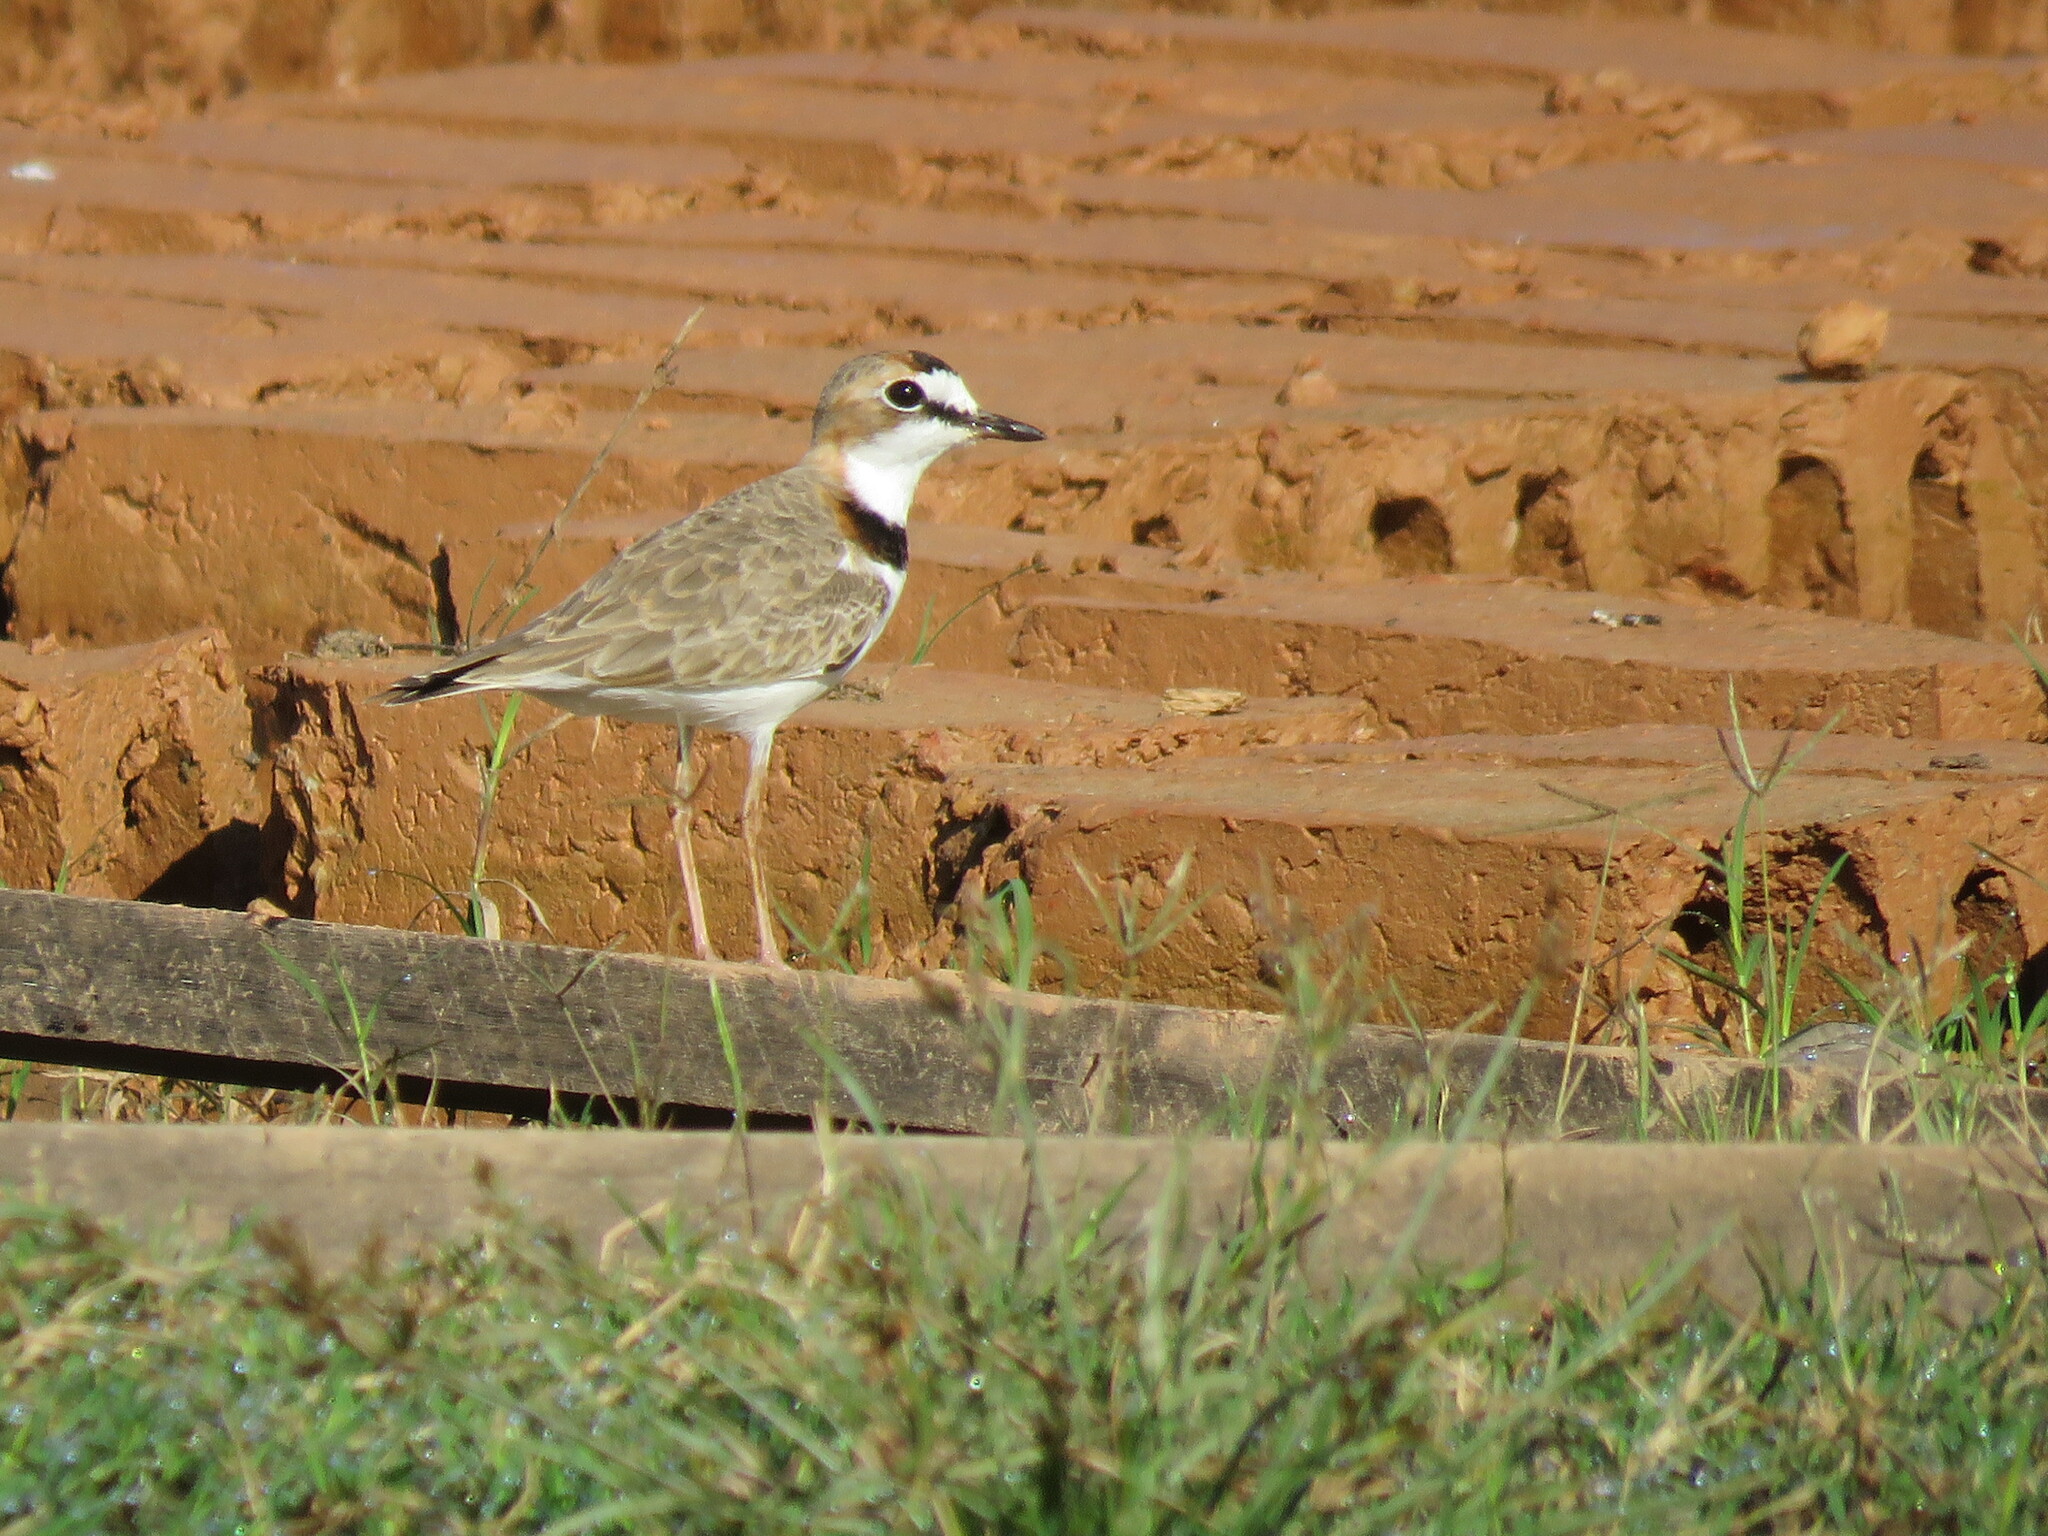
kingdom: Animalia
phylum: Chordata
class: Aves
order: Charadriiformes
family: Charadriidae
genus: Anarhynchus
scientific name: Anarhynchus
